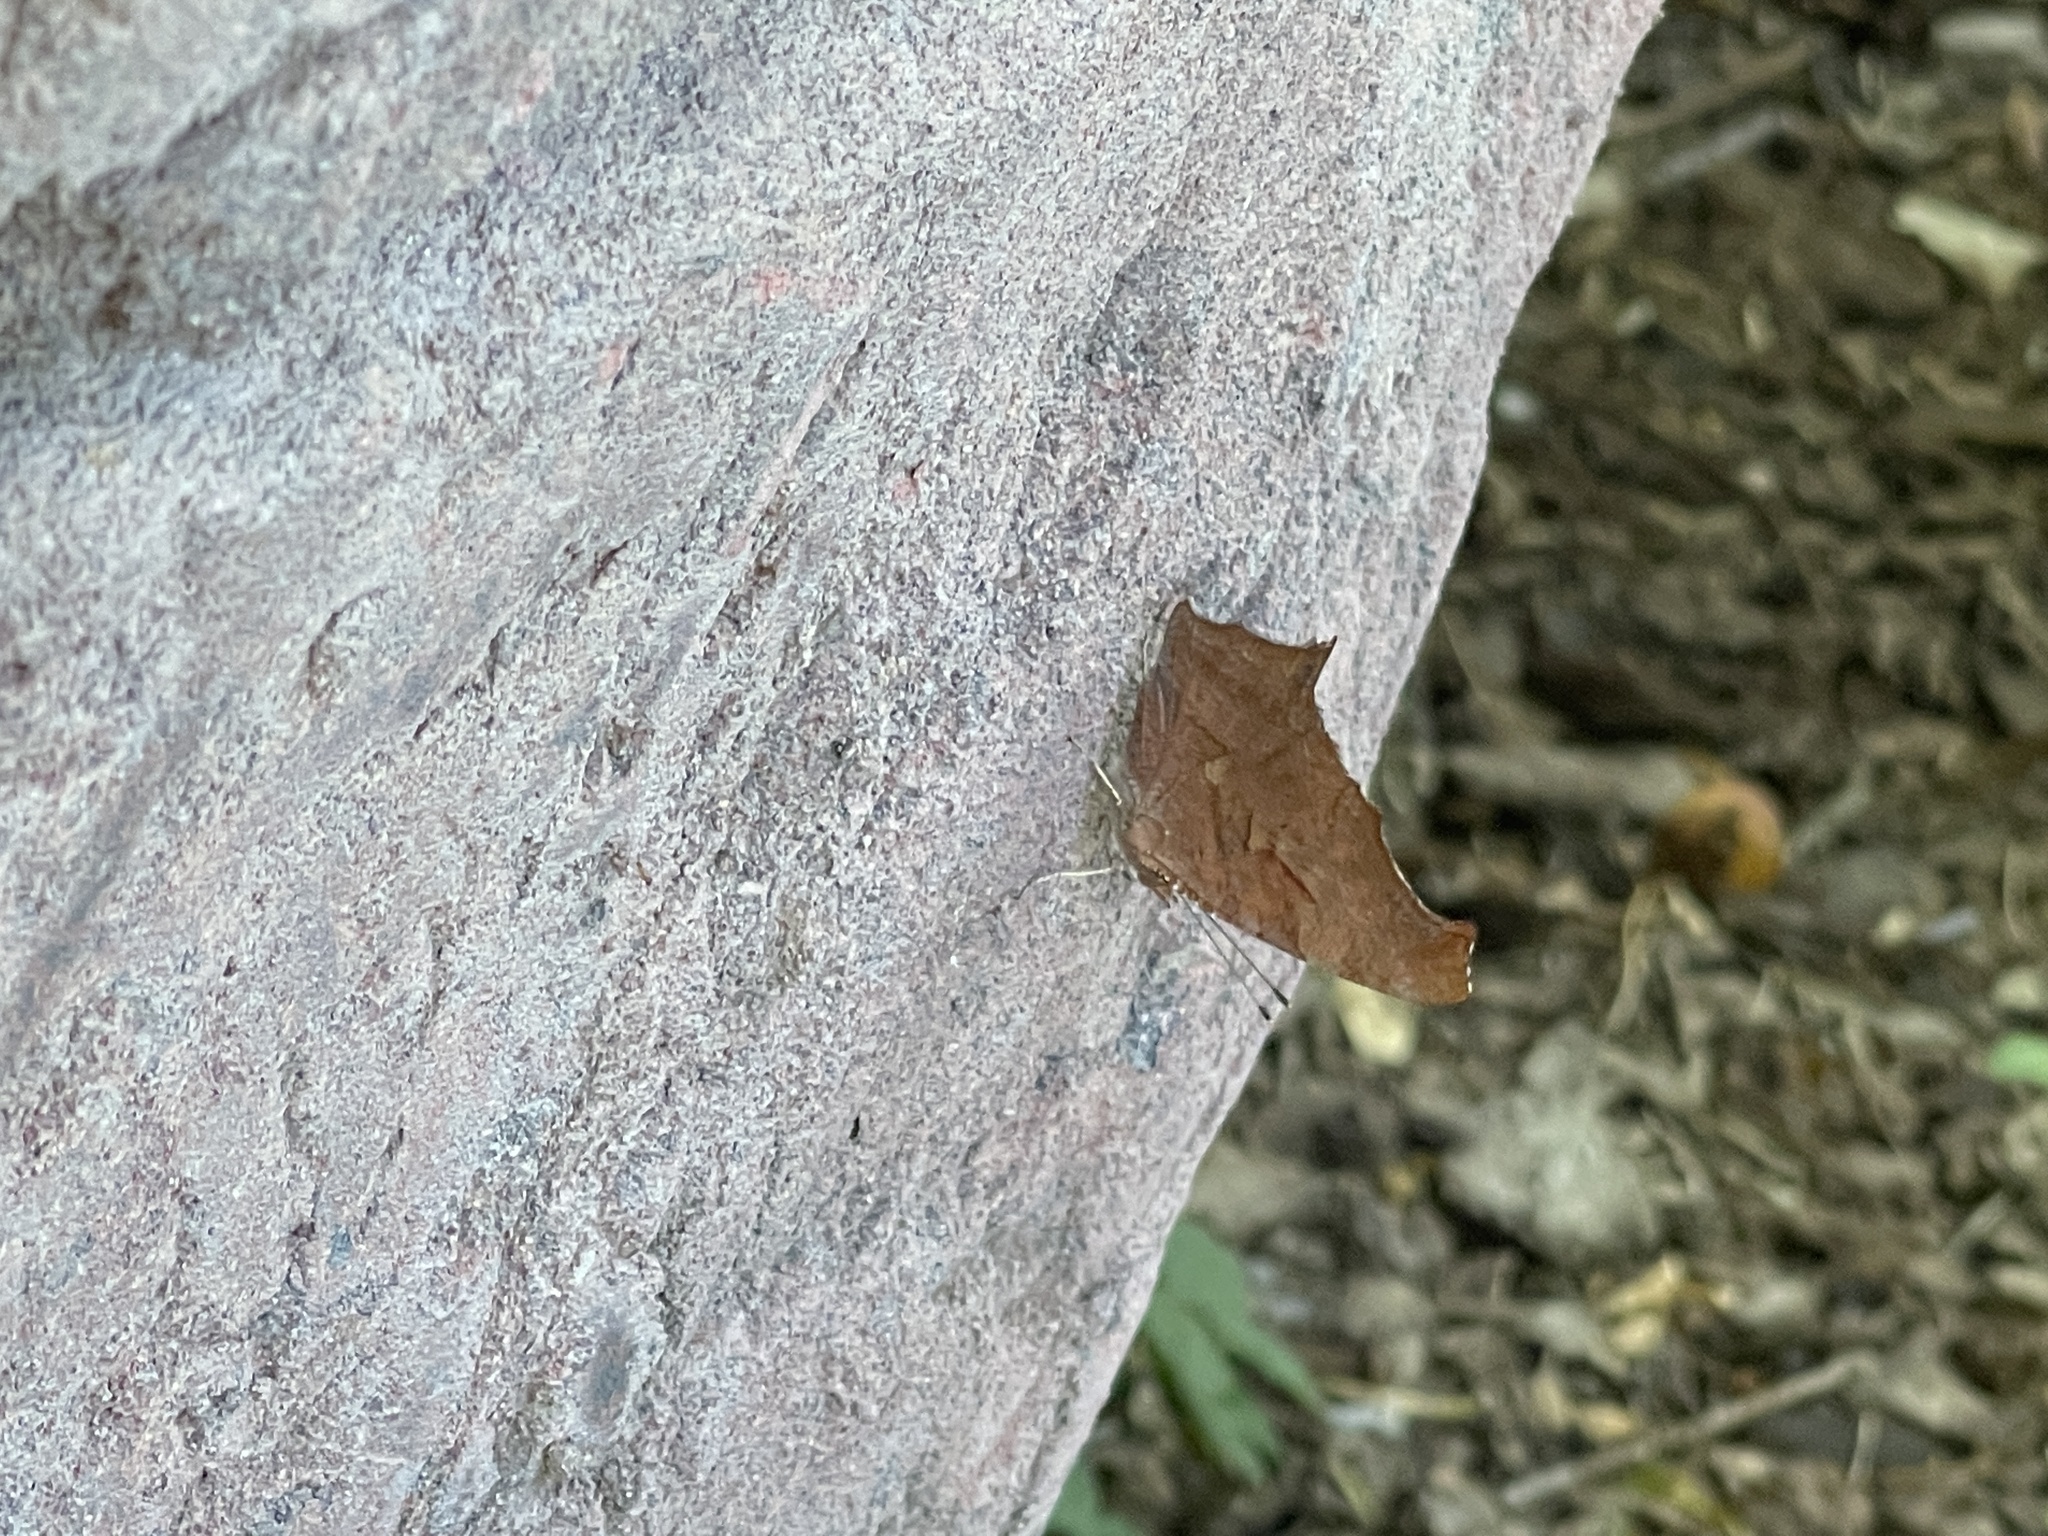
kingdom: Animalia
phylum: Arthropoda
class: Insecta
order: Lepidoptera
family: Nymphalidae
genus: Polygonia
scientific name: Polygonia interrogationis
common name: Question mark
